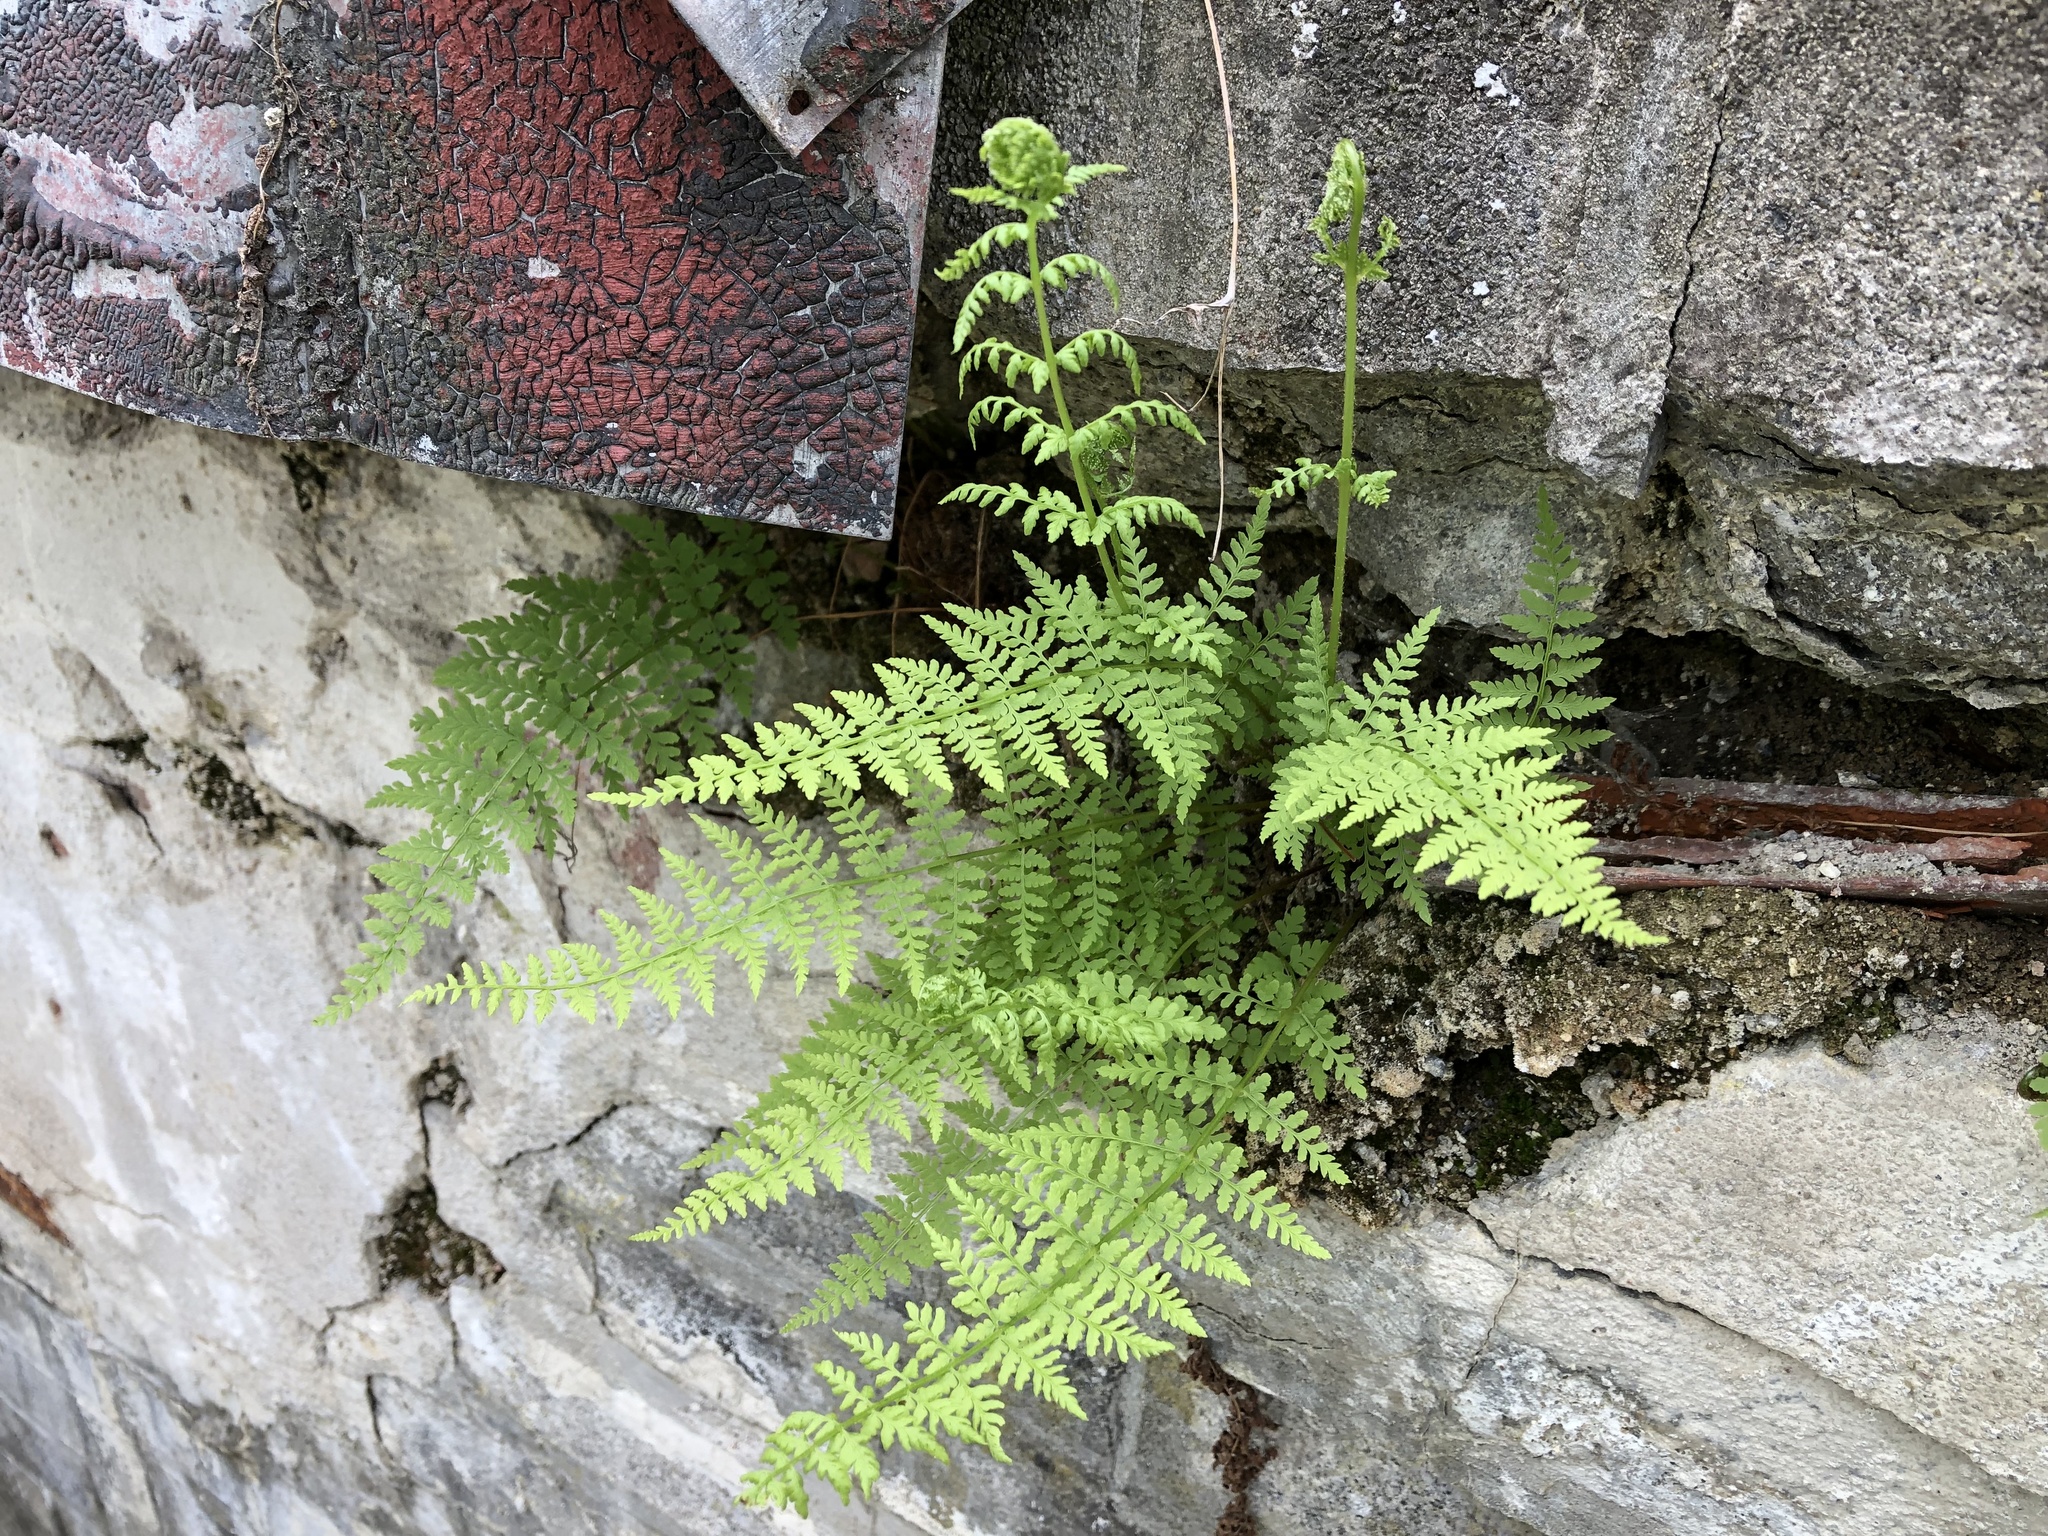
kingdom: Plantae
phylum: Tracheophyta
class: Polypodiopsida
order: Polypodiales
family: Cystopteridaceae
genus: Cystopteris
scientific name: Cystopteris fragilis
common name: Brittle bladder fern
